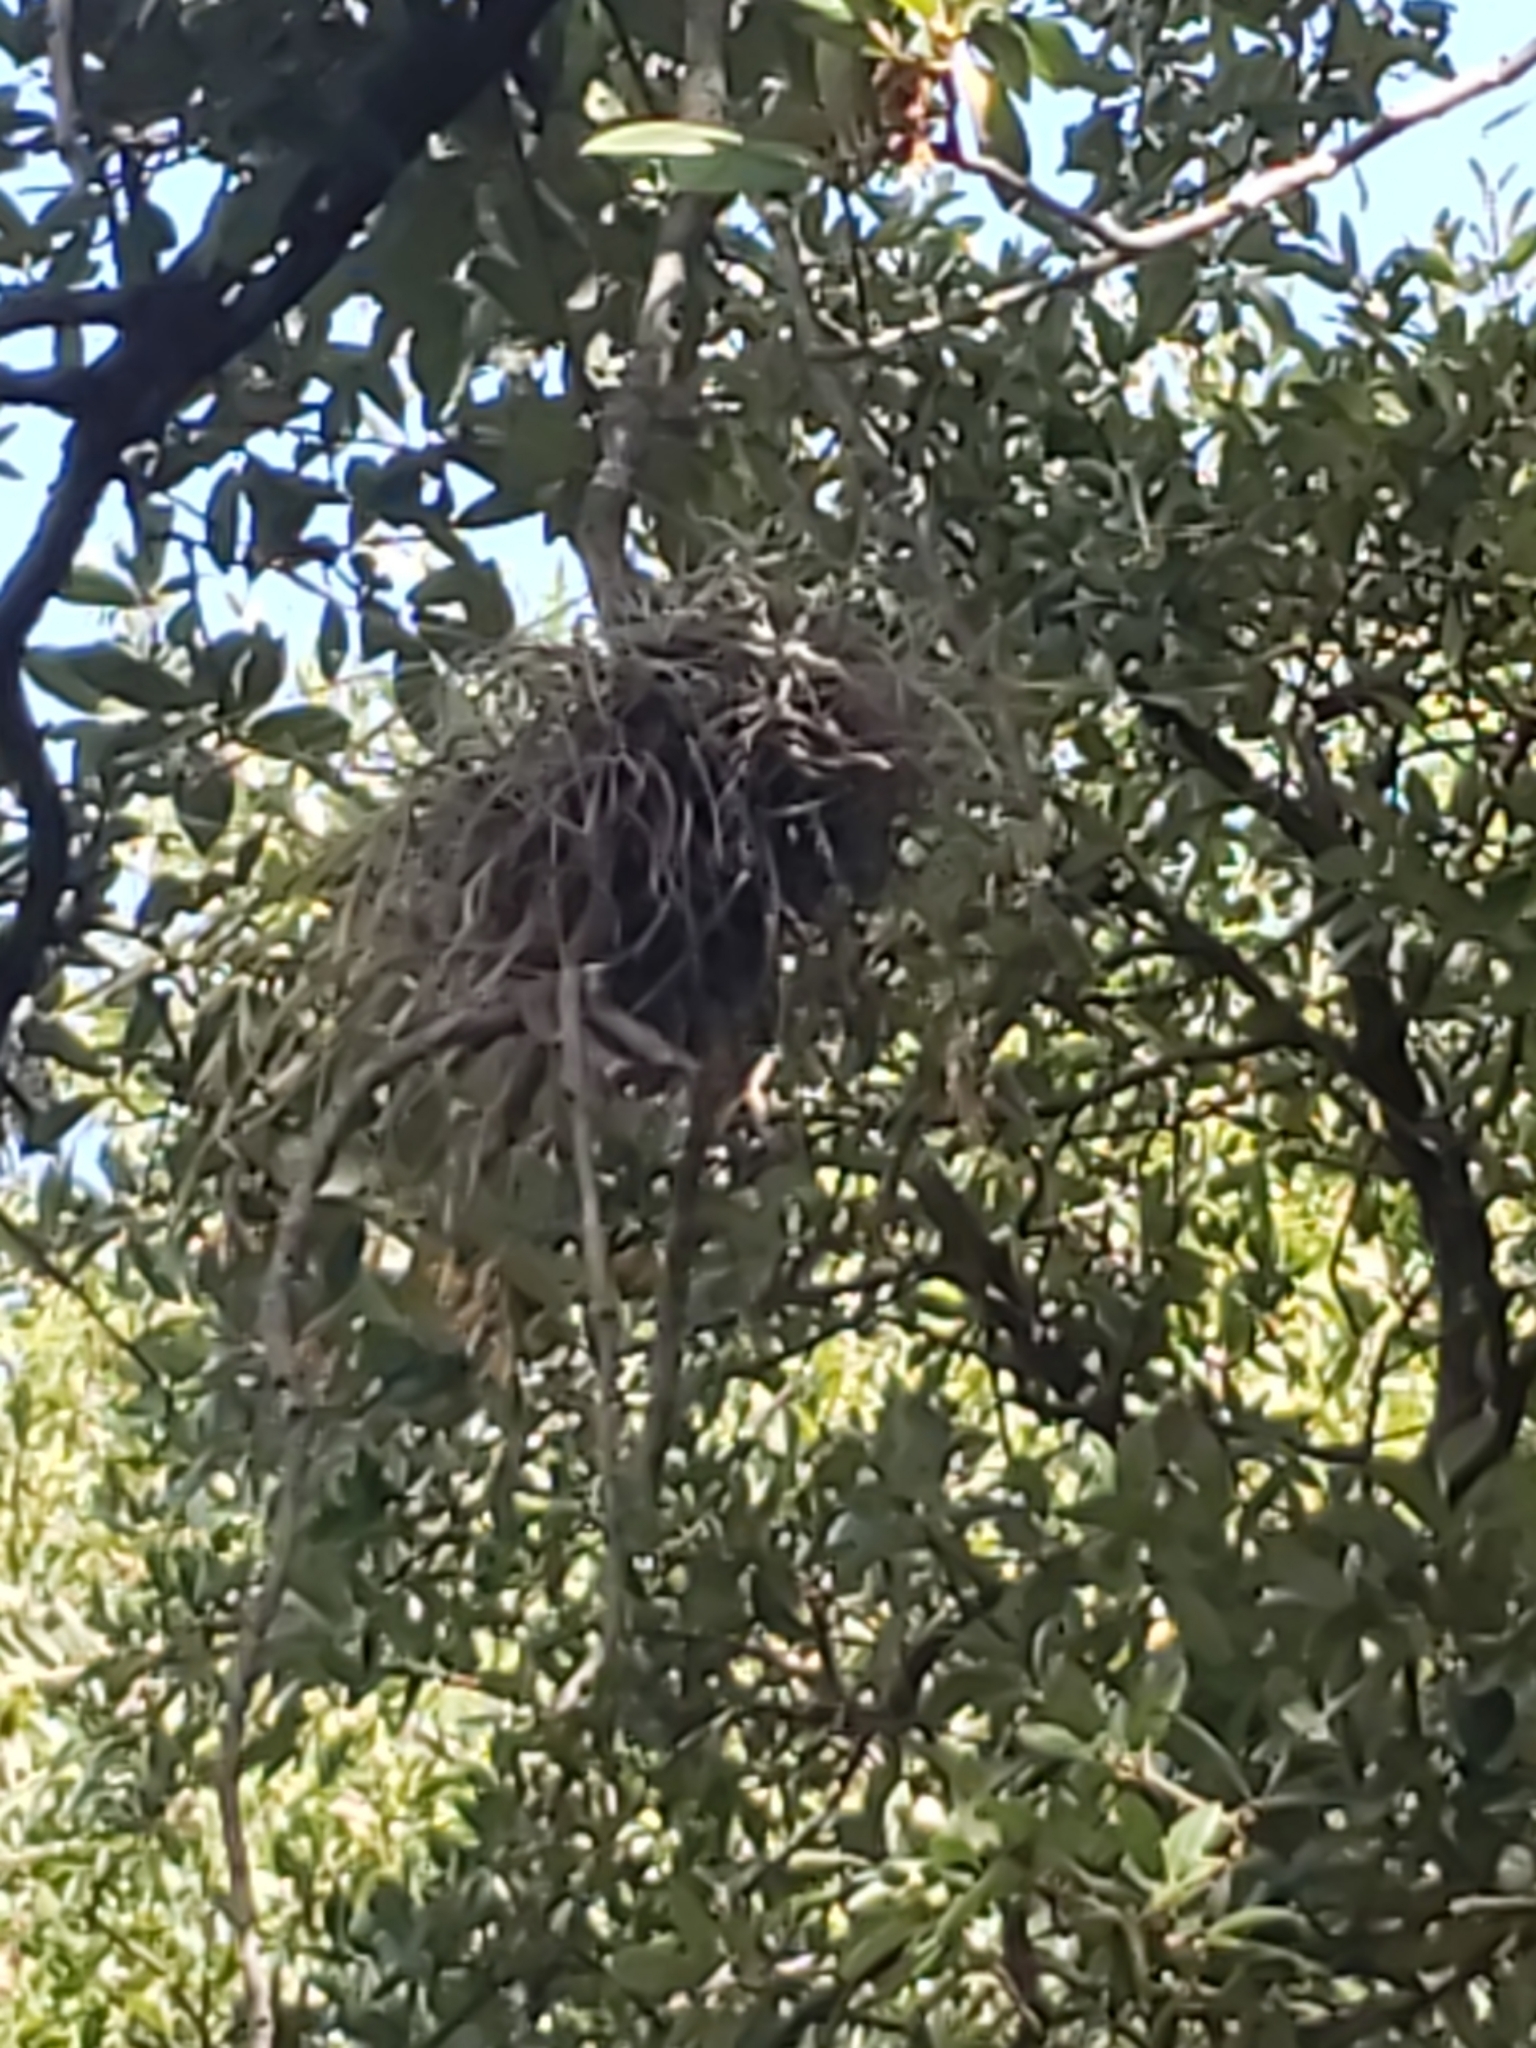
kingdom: Plantae
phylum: Tracheophyta
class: Liliopsida
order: Poales
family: Bromeliaceae
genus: Tillandsia
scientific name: Tillandsia recurvata
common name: Small ballmoss
